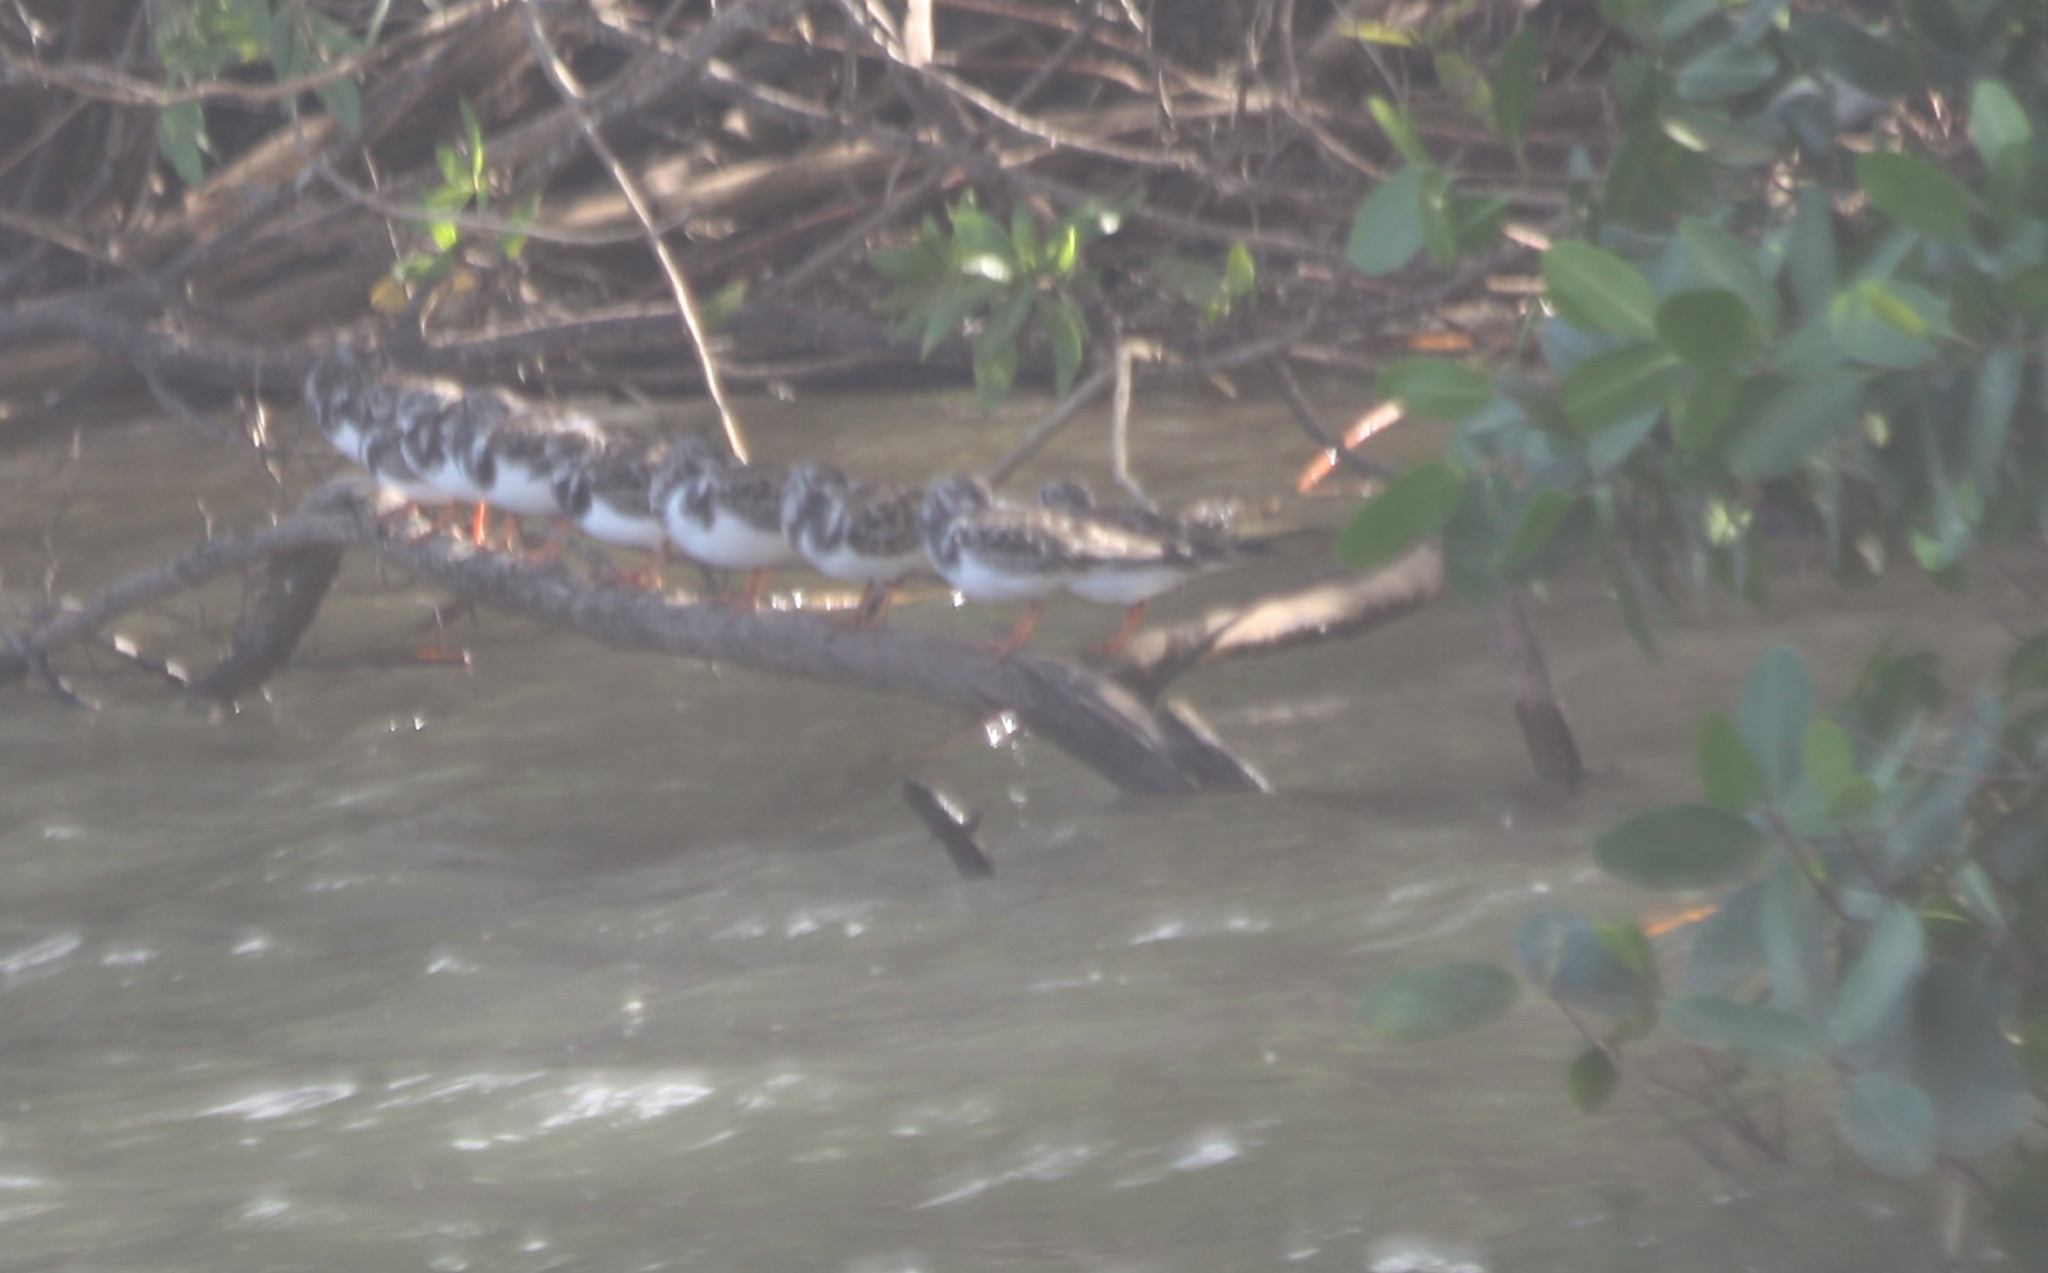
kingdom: Animalia
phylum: Chordata
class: Aves
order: Charadriiformes
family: Scolopacidae
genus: Arenaria
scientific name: Arenaria interpres
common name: Ruddy turnstone
